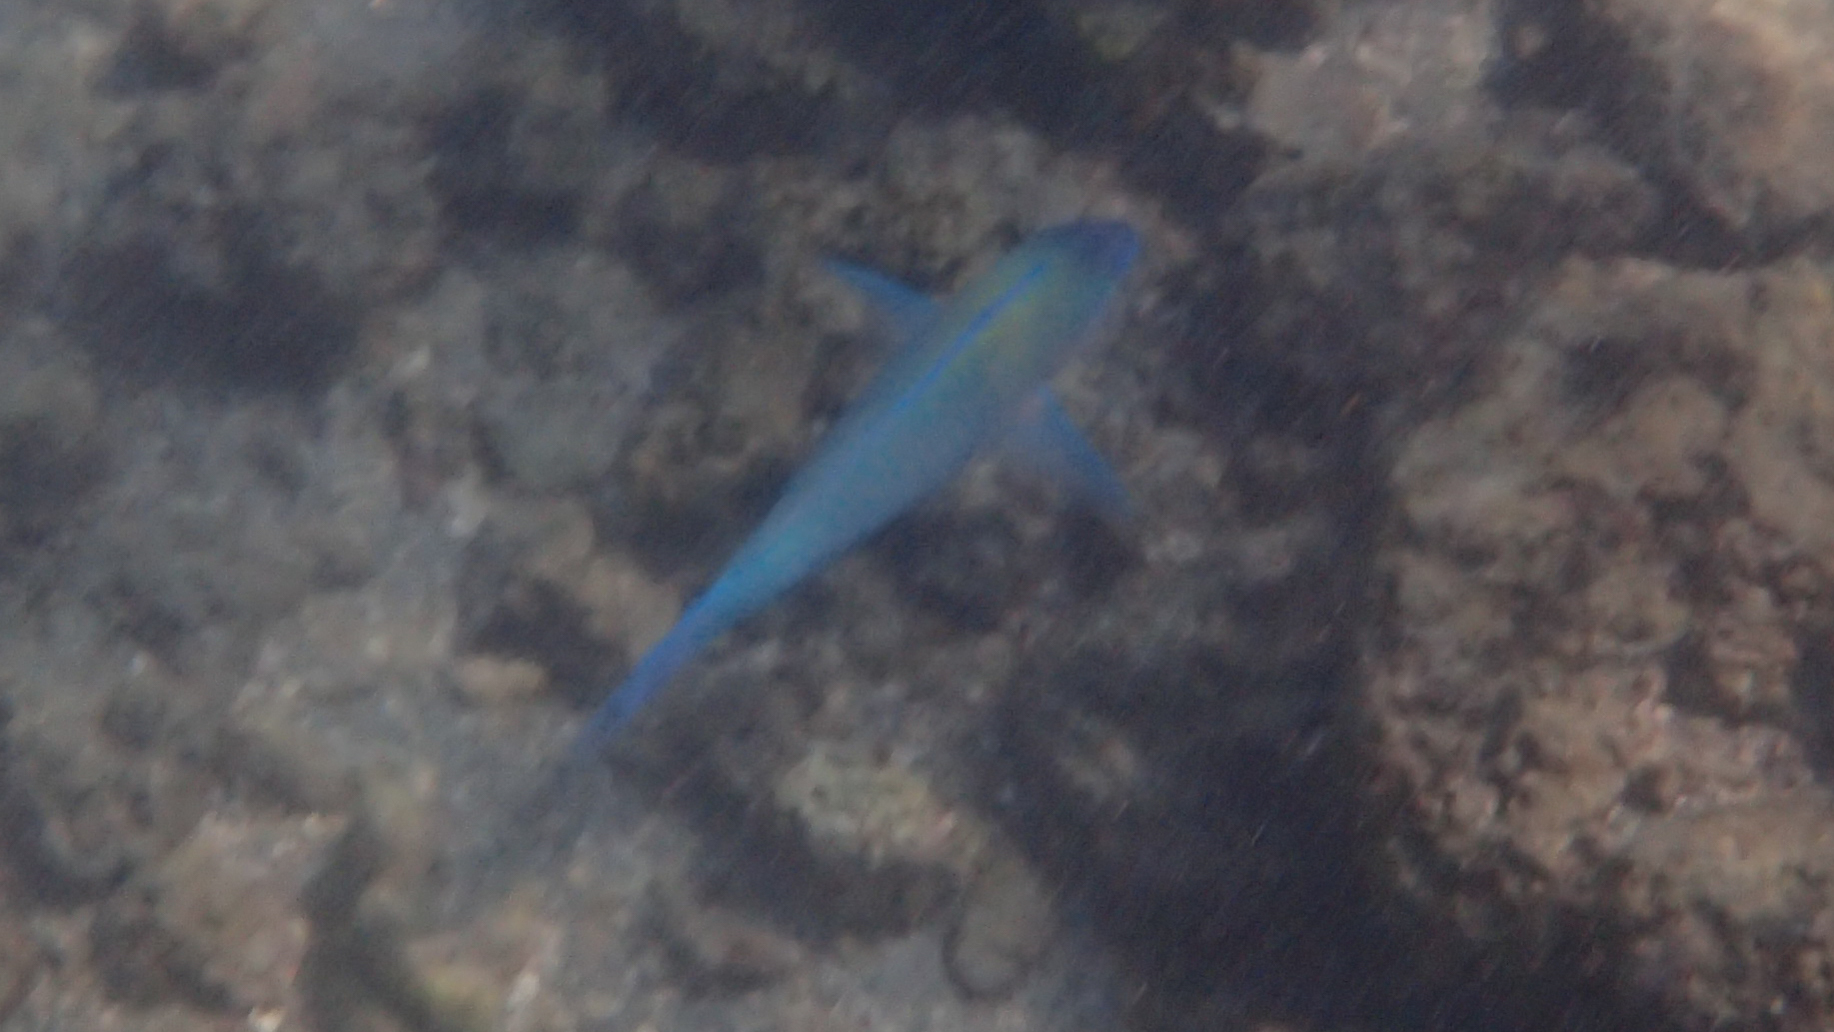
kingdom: Animalia
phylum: Chordata
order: Perciformes
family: Scaridae
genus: Scarus
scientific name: Scarus psittacus
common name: Palenose parrotfish
